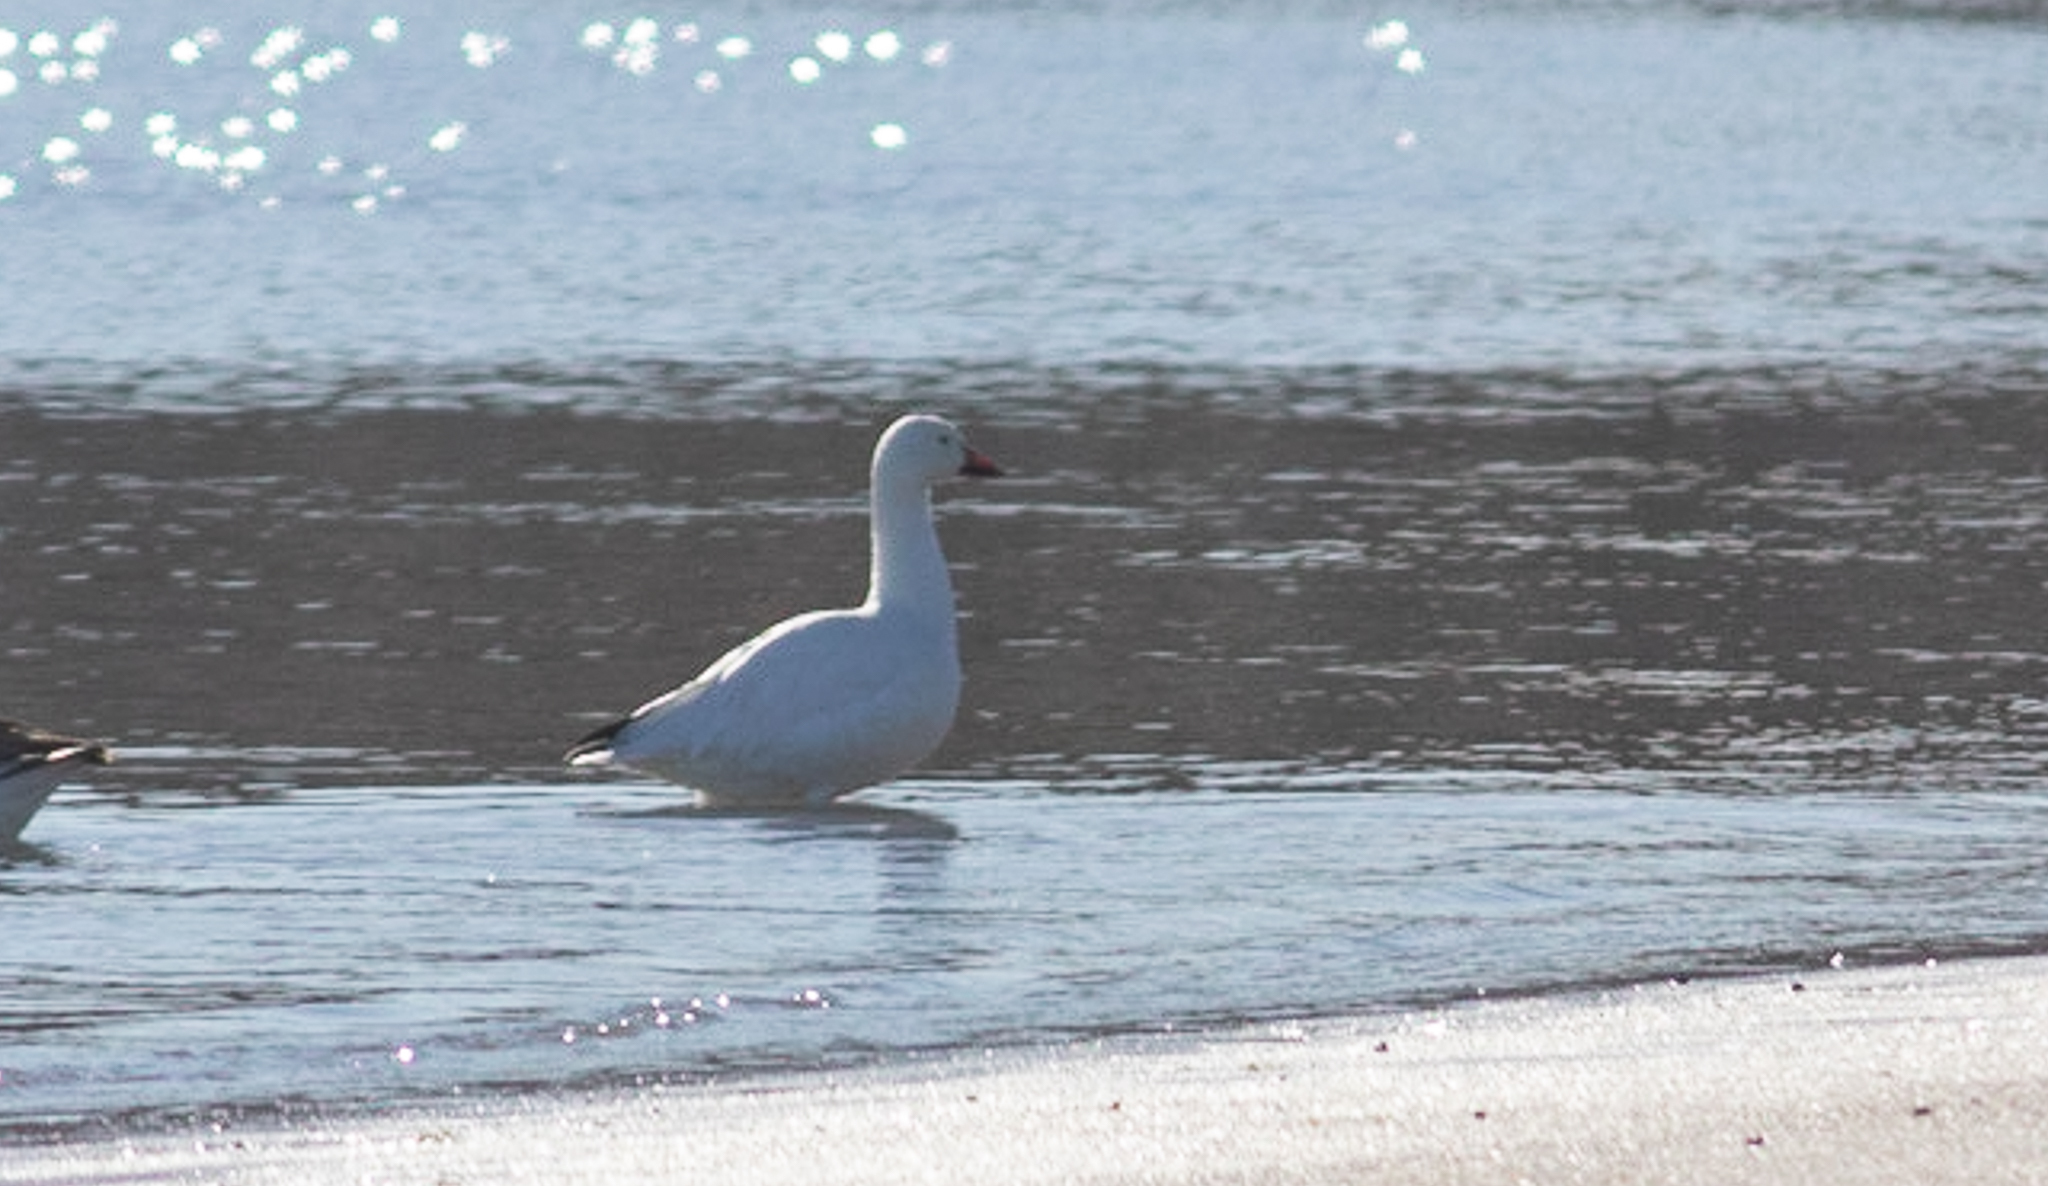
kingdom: Animalia
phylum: Chordata
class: Aves
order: Anseriformes
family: Anatidae
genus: Anser
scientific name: Anser caerulescens
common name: Snow goose
